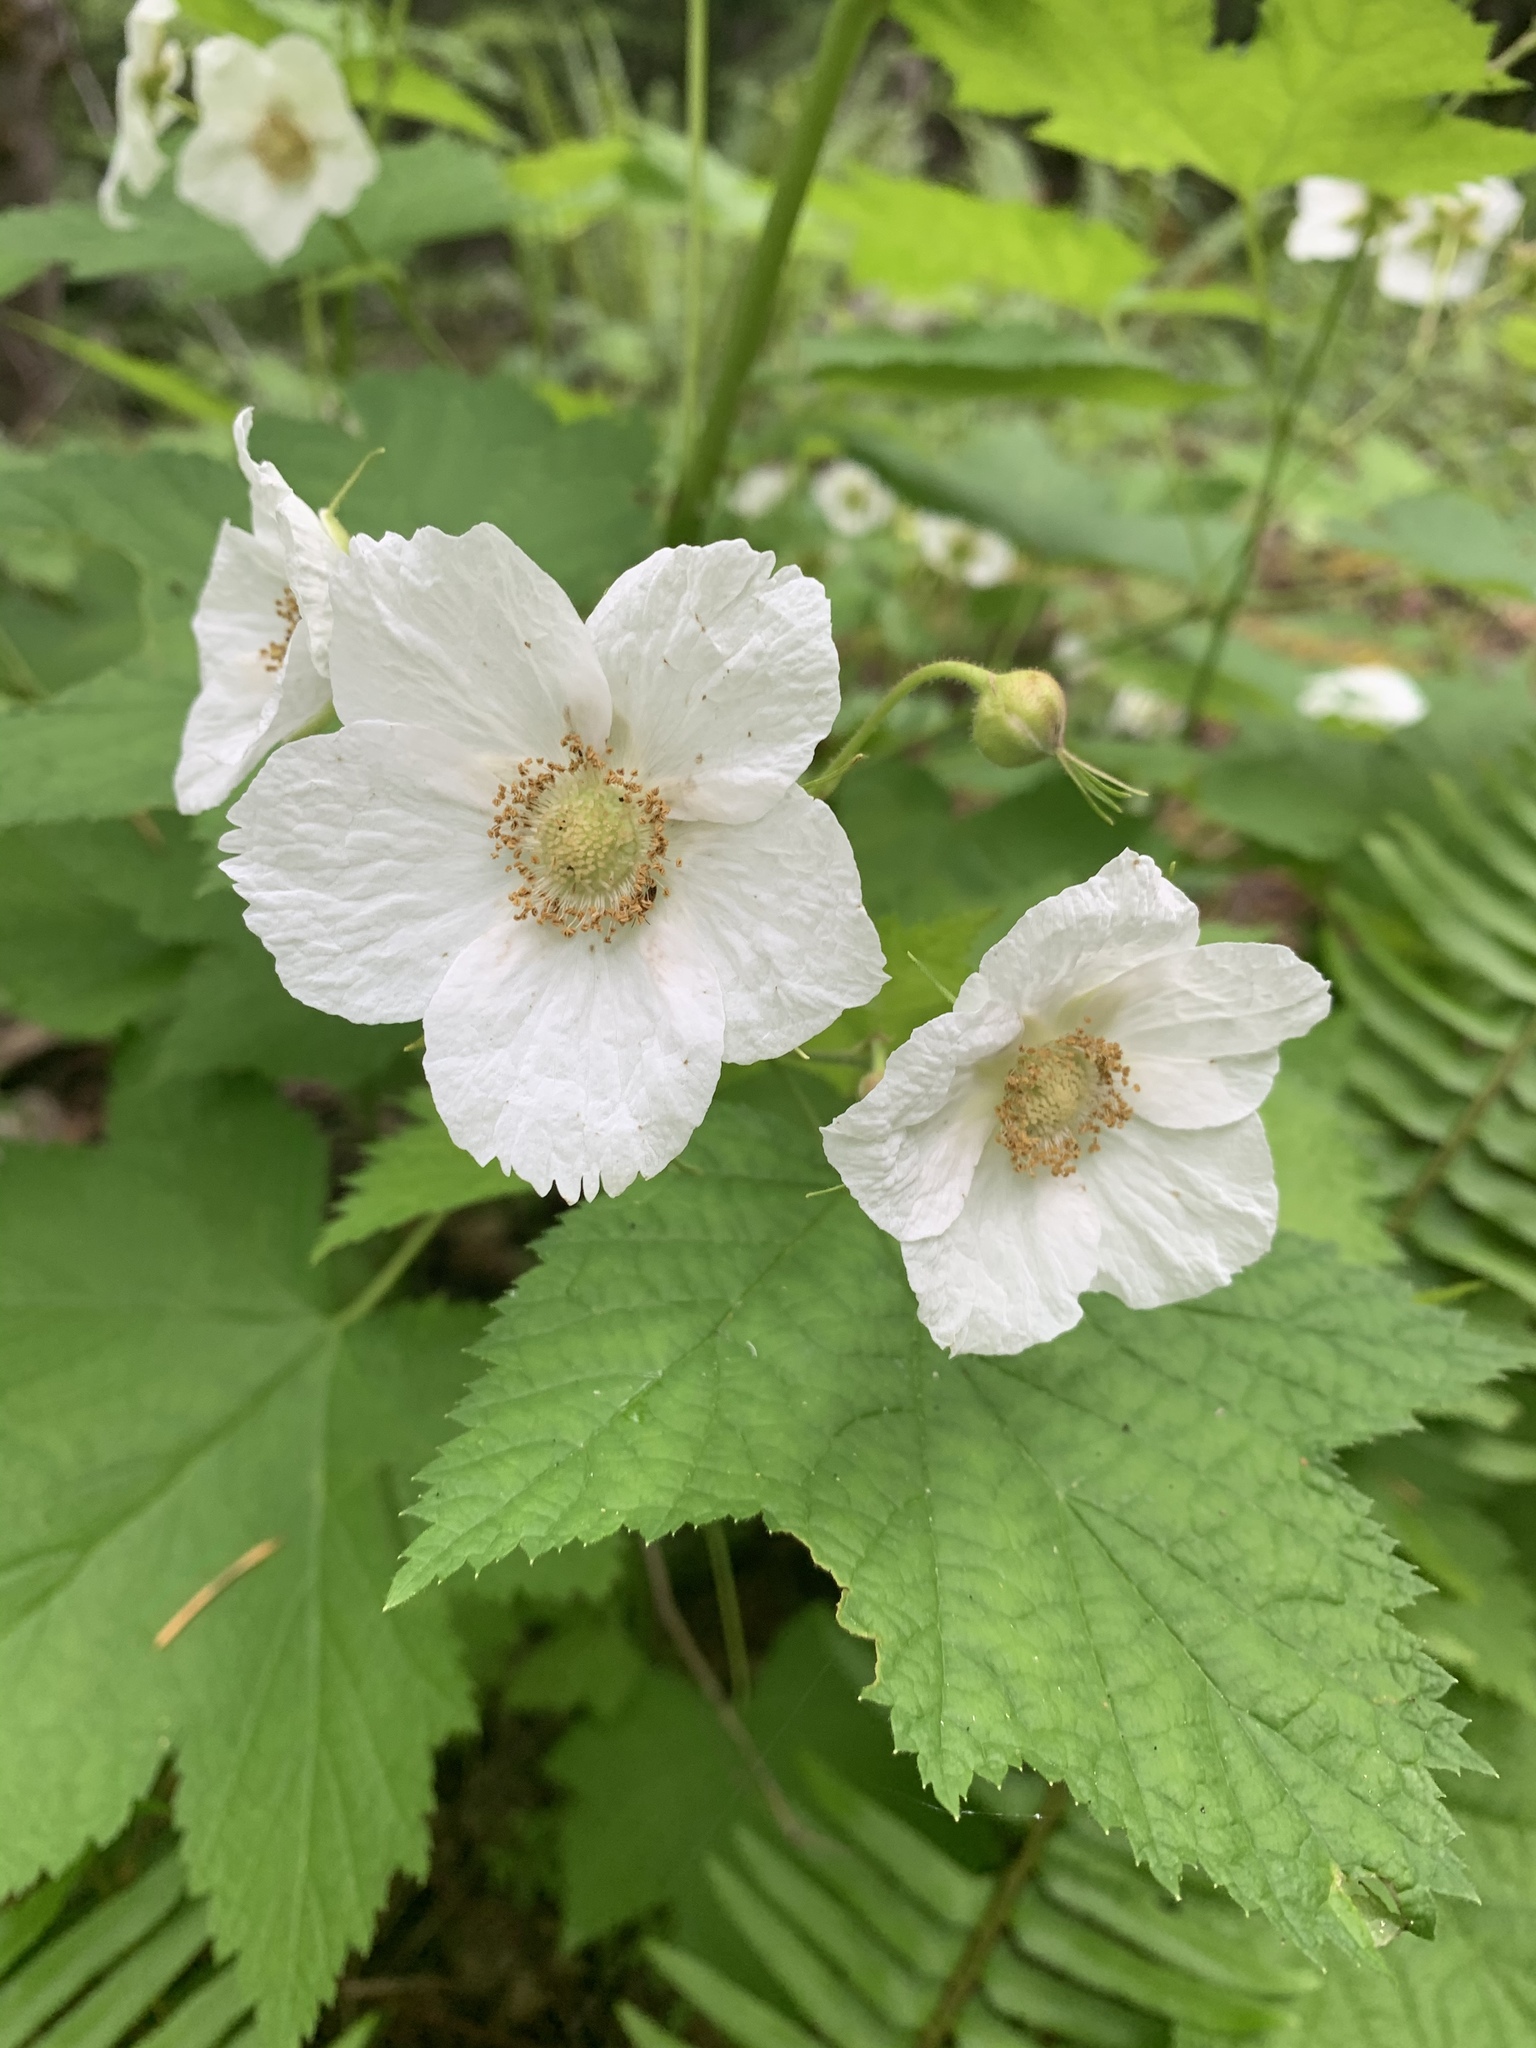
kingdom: Plantae
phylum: Tracheophyta
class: Magnoliopsida
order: Rosales
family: Rosaceae
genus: Rubus
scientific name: Rubus parviflorus
